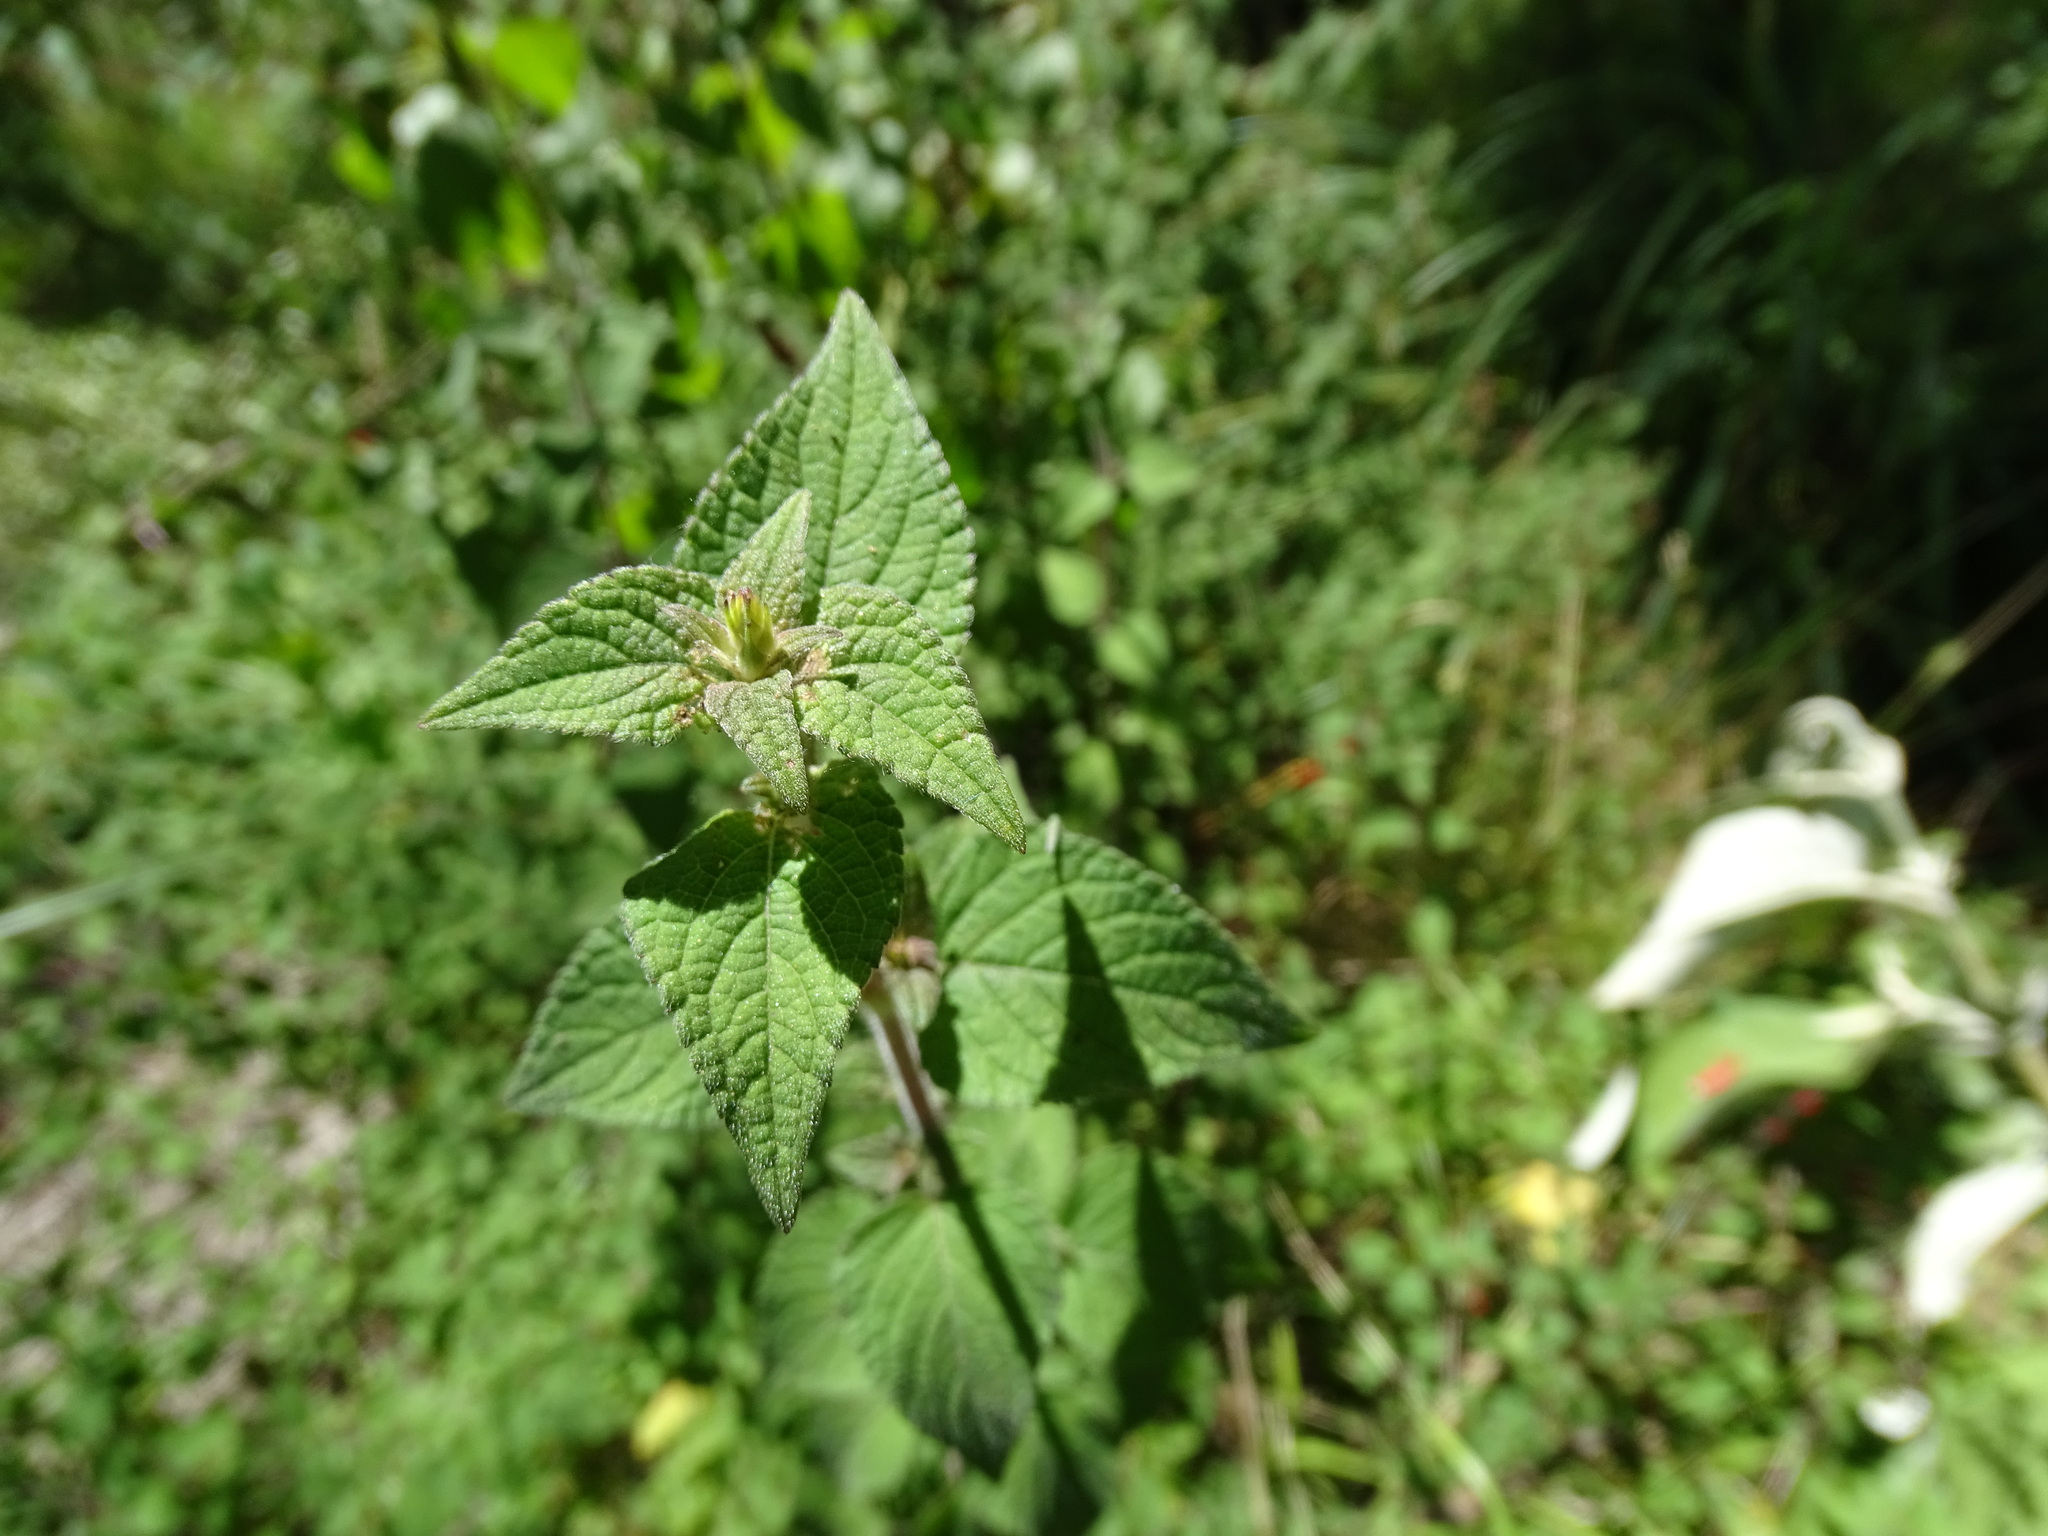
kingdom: Plantae
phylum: Tracheophyta
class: Magnoliopsida
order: Lamiales
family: Lamiaceae
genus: Salvia
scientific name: Salvia elegans
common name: Pineapple sage
